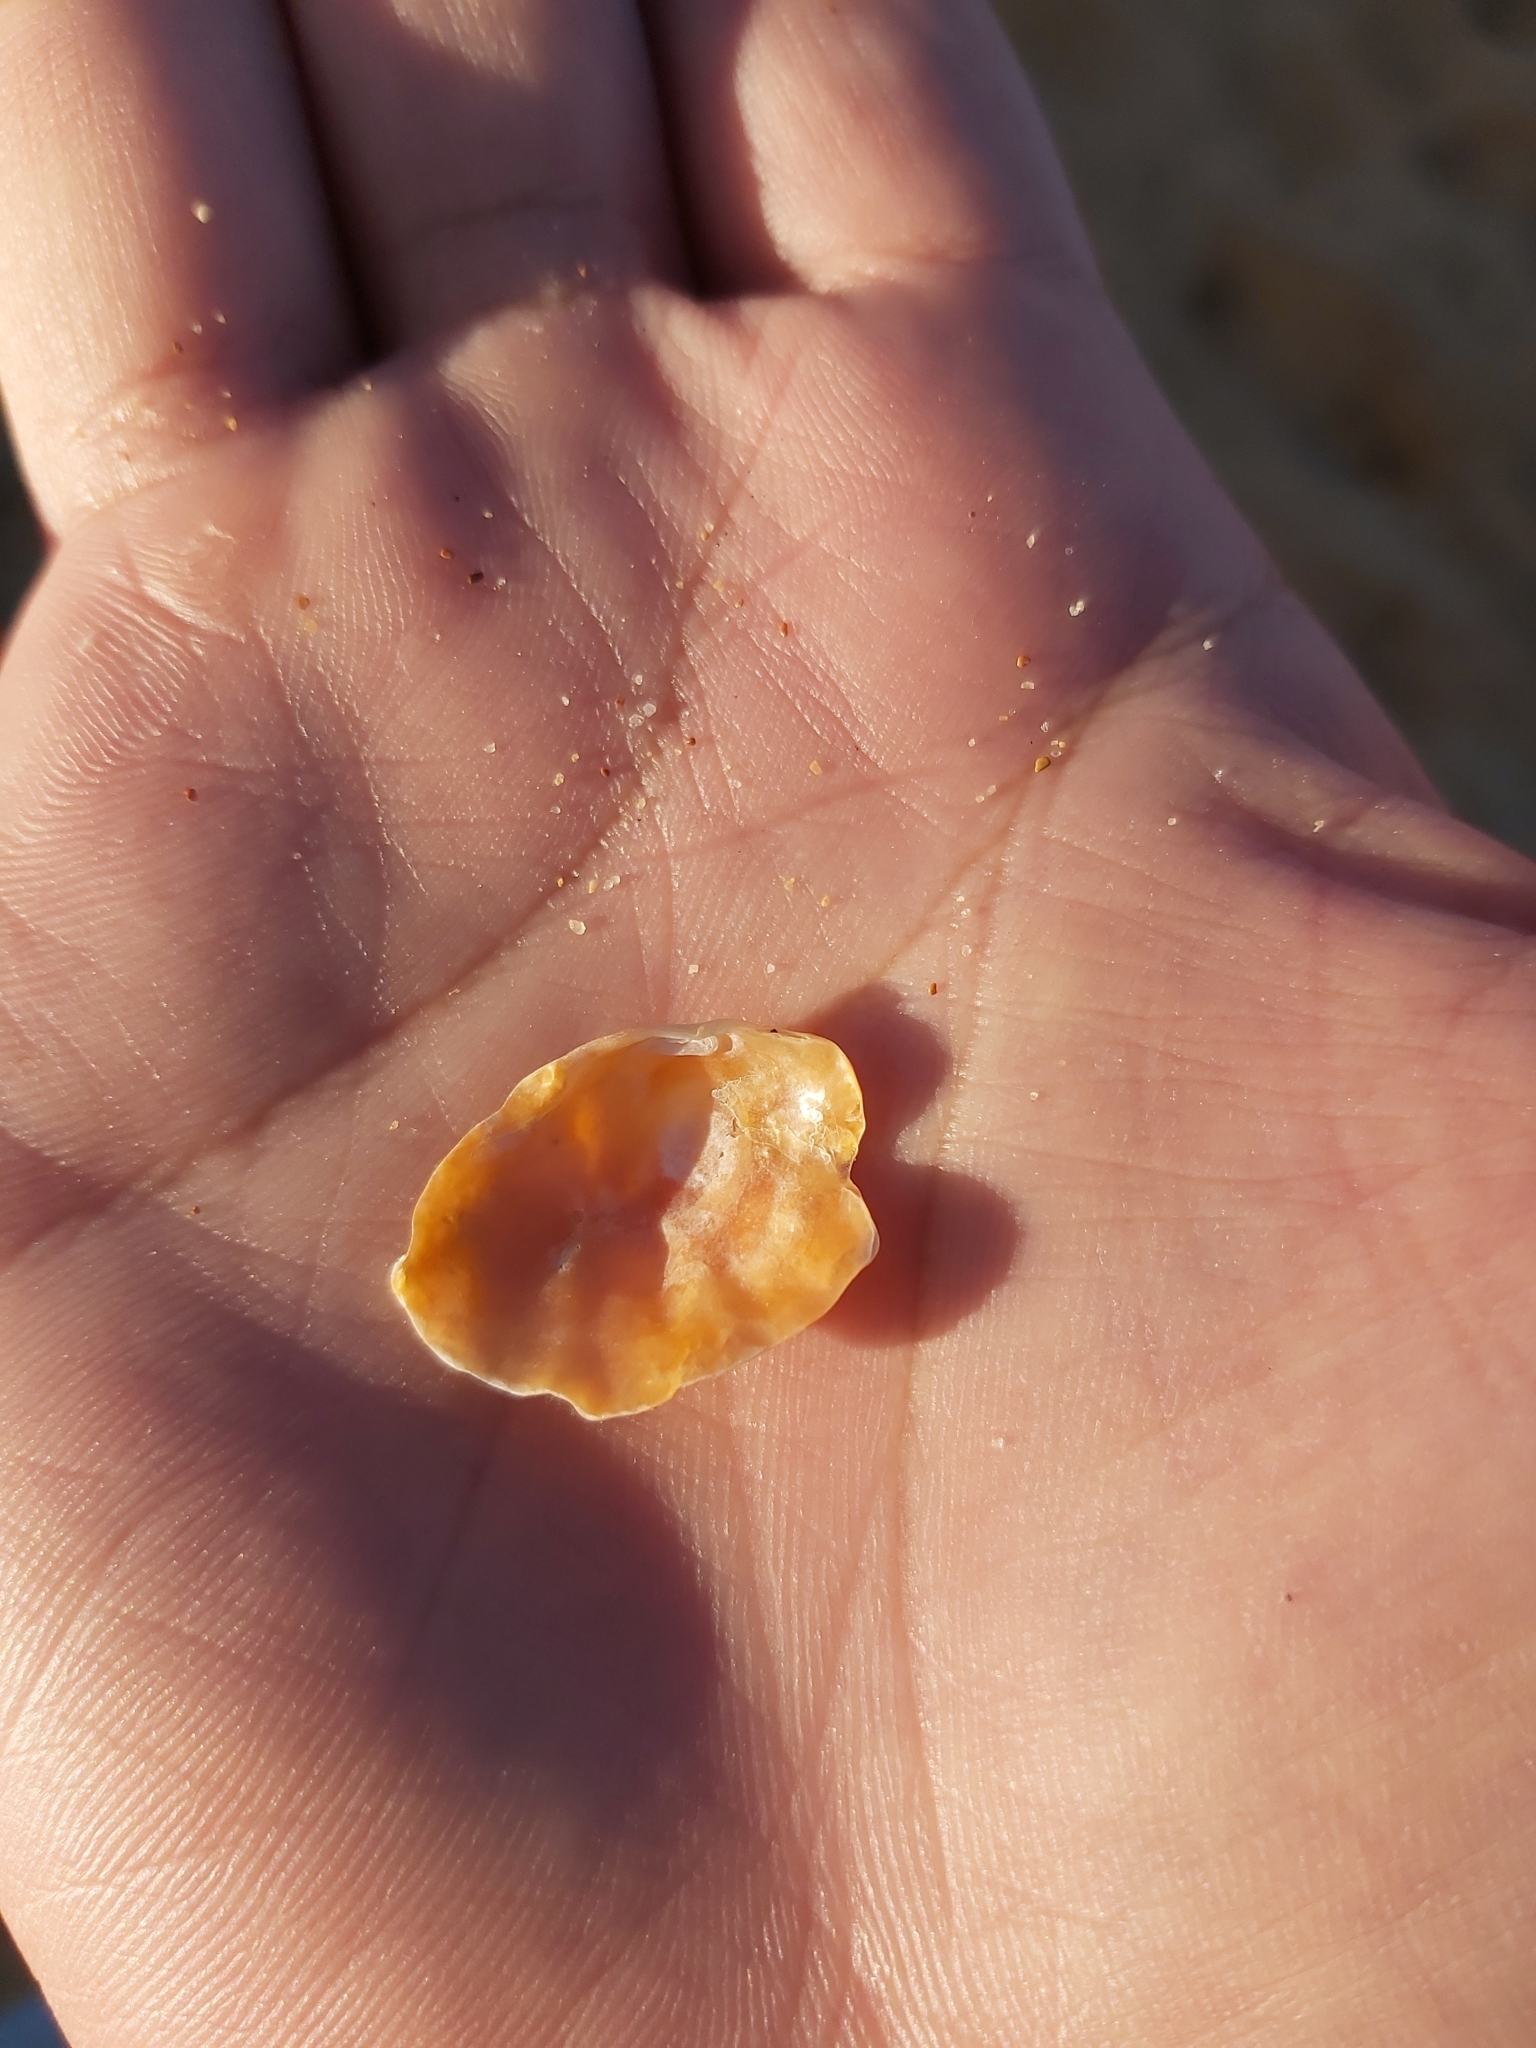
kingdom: Animalia
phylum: Mollusca
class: Bivalvia
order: Pectinida
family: Anomiidae
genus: Anomia
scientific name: Anomia trigonopsis
